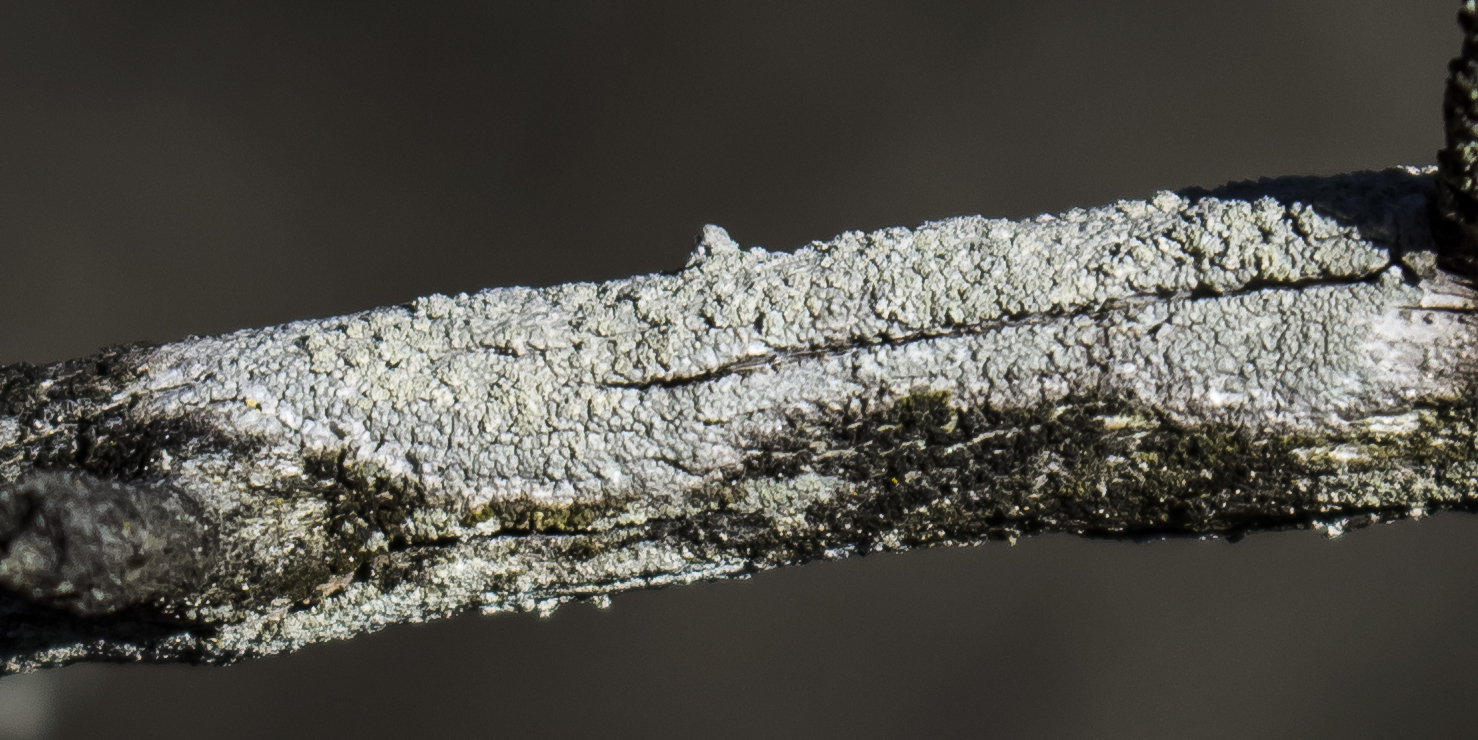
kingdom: Fungi
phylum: Ascomycota
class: Lecanoromycetes
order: Pertusariales
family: Ochrolechiaceae
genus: Ochrolechia
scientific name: Ochrolechia arborea
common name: Tree saucer lichen
